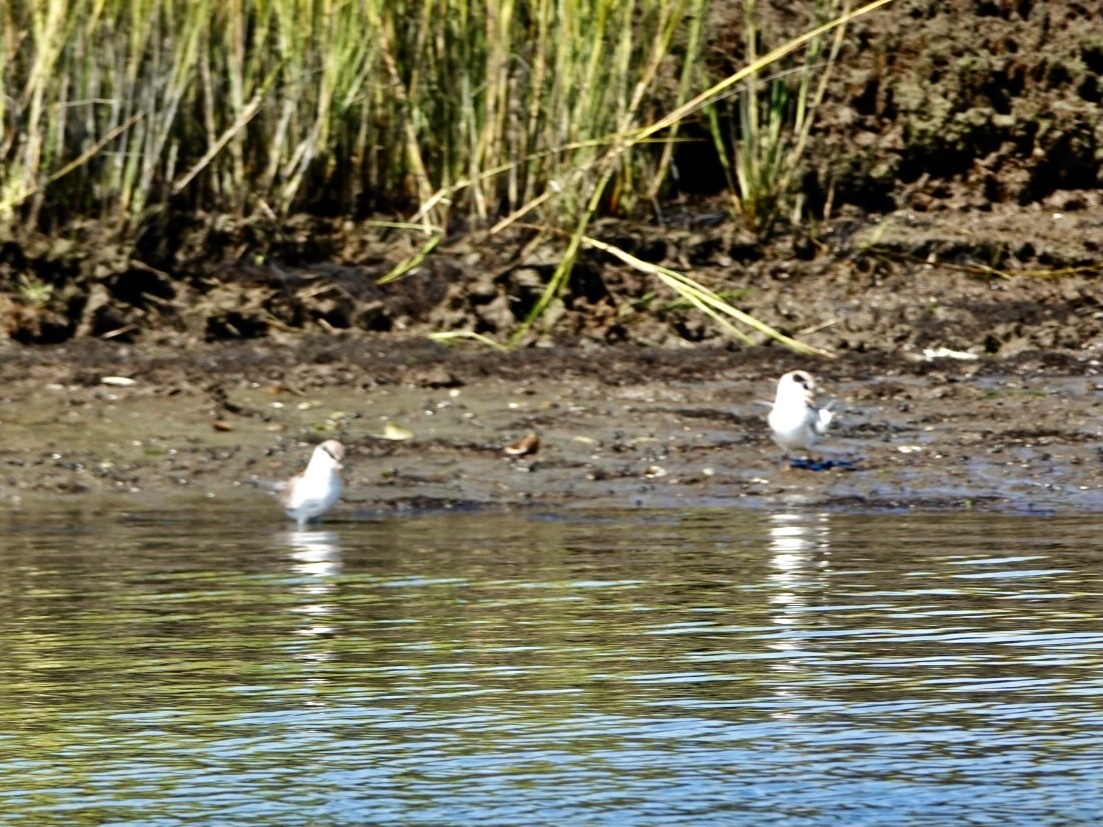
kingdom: Animalia
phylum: Chordata
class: Aves
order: Charadriiformes
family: Laridae
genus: Sterna
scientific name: Sterna forsteri
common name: Forster's tern
